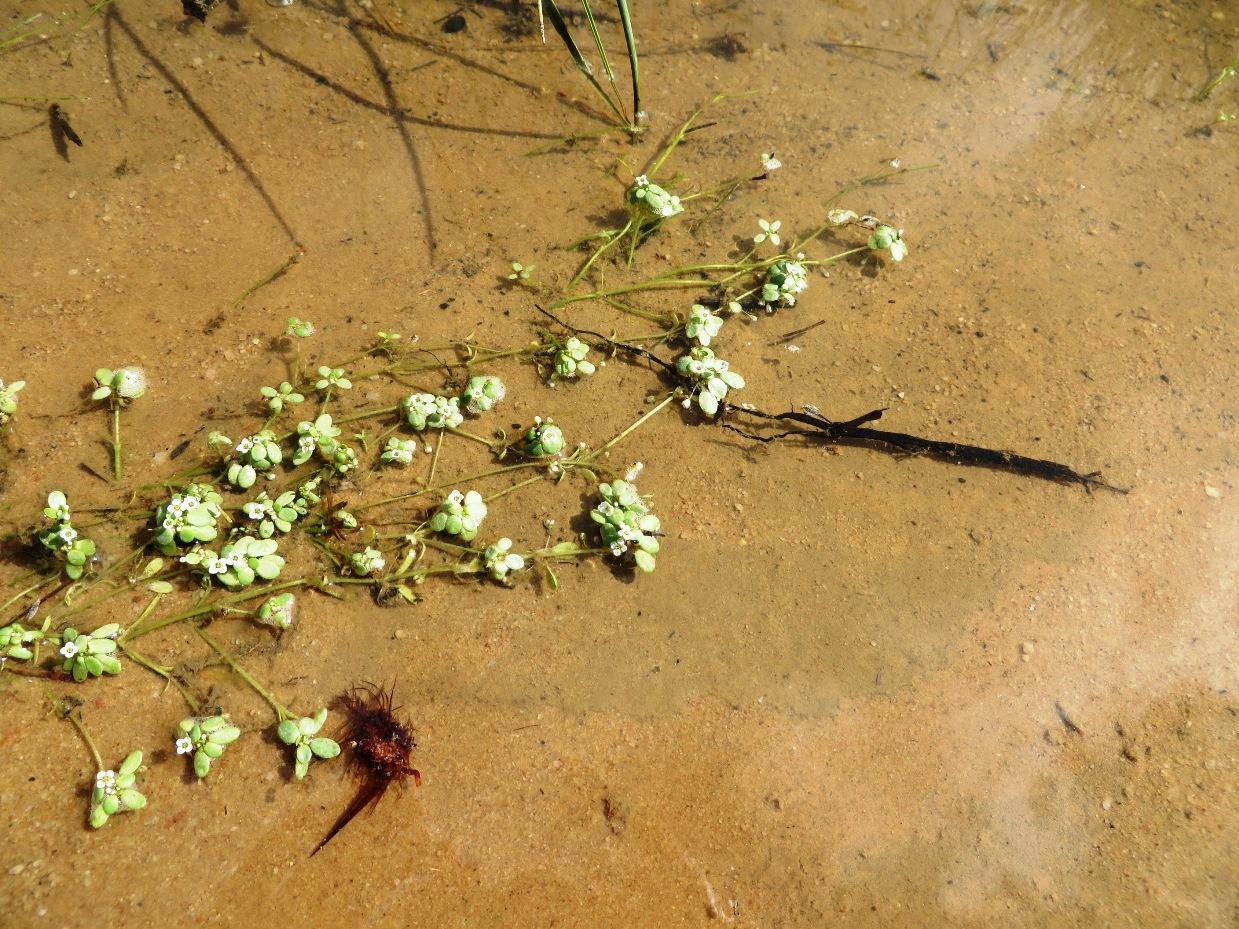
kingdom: Plantae
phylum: Tracheophyta
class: Magnoliopsida
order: Saxifragales
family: Crassulaceae
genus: Crassula
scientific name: Crassula natans
